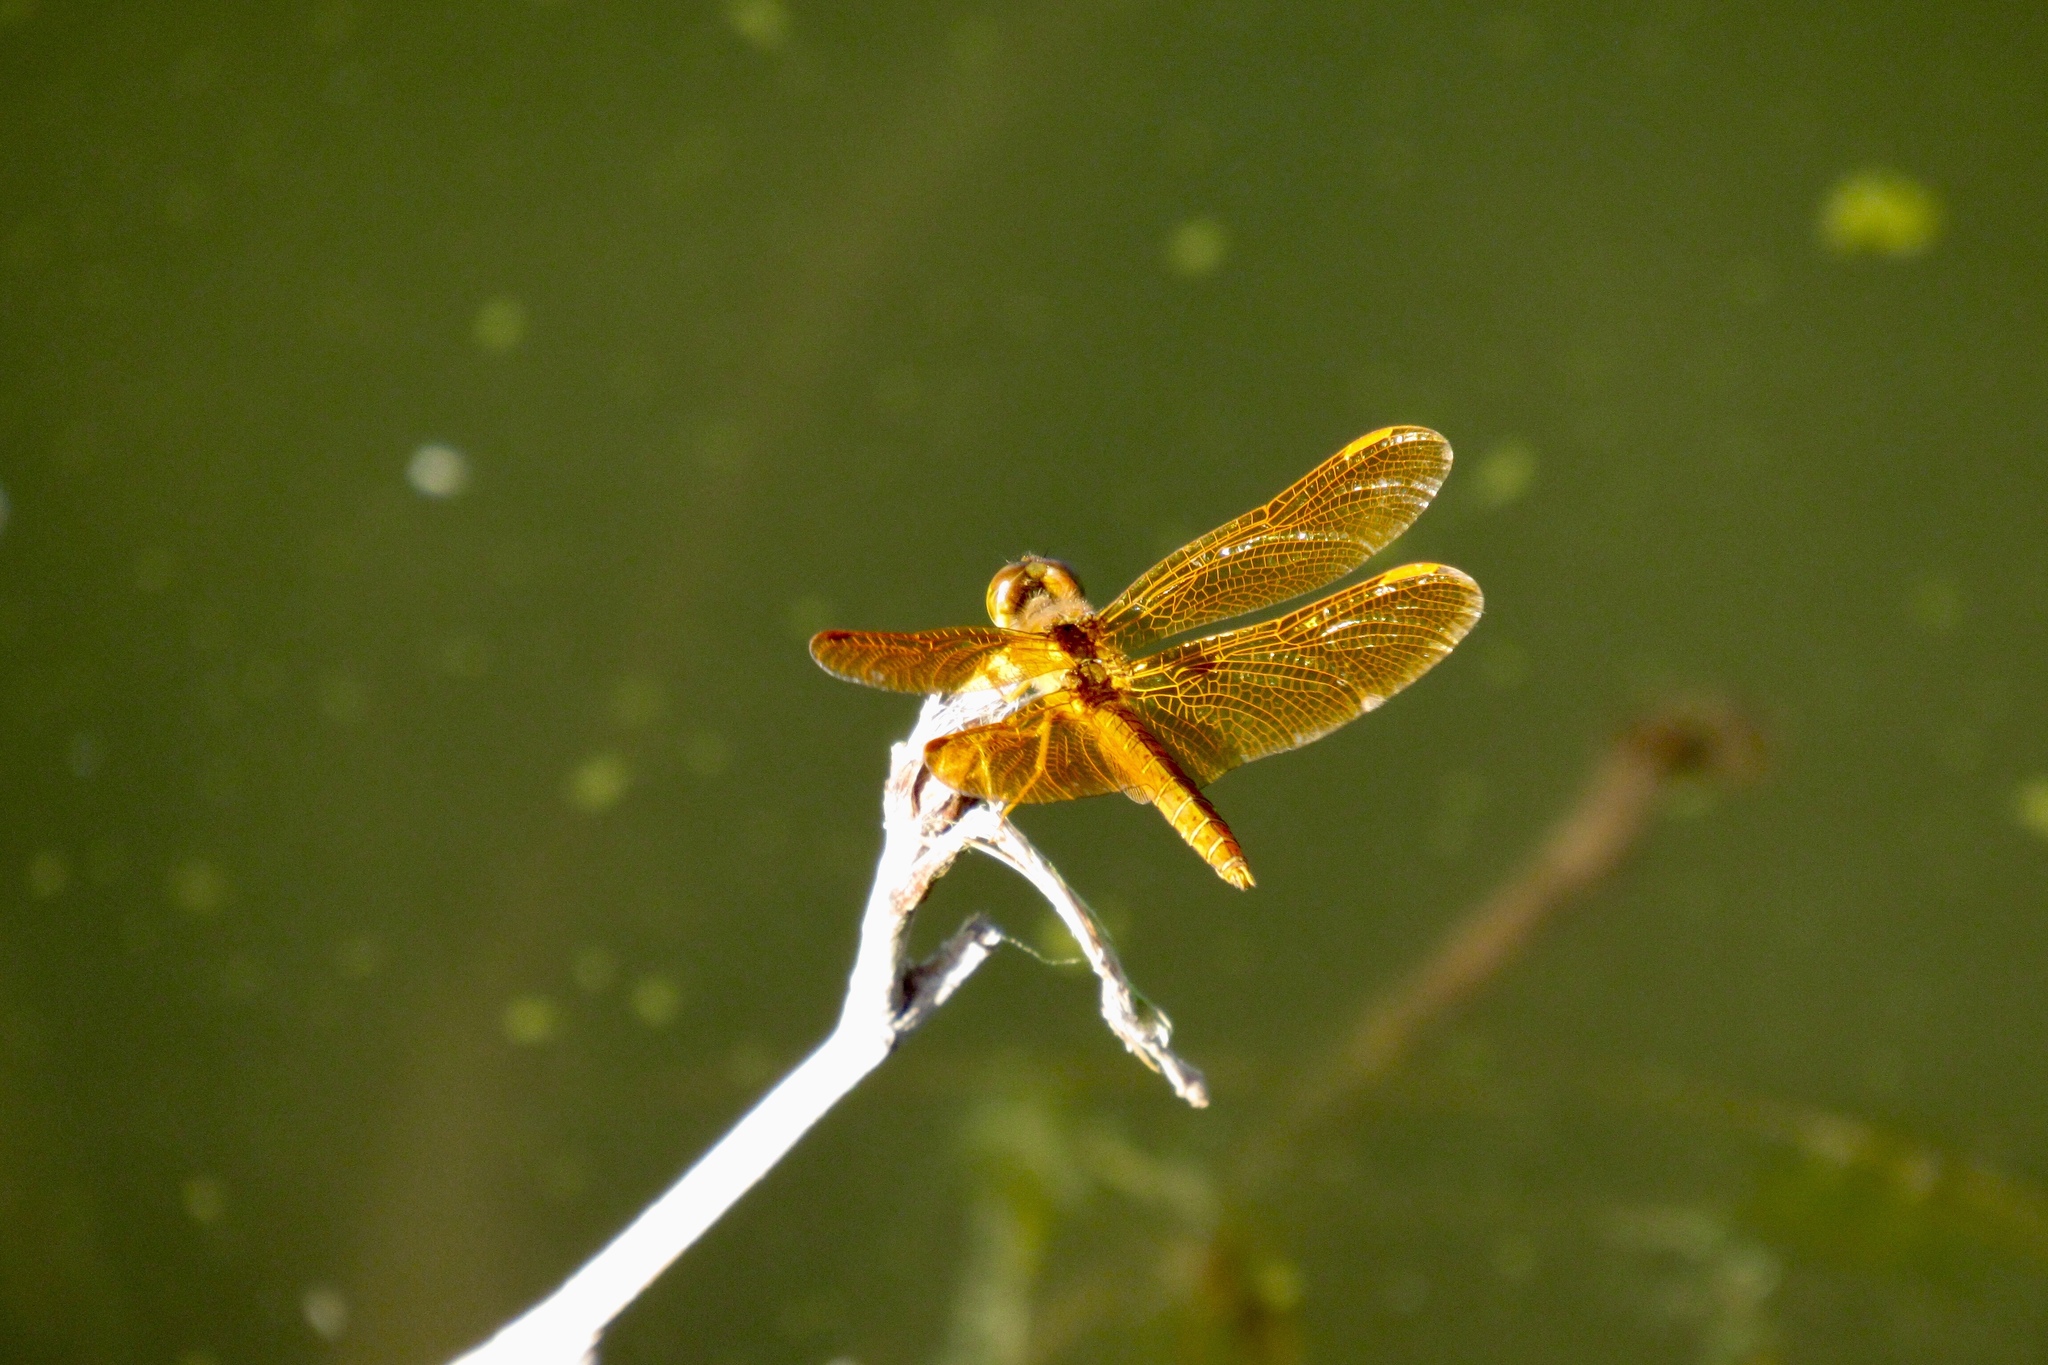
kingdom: Animalia
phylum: Arthropoda
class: Insecta
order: Odonata
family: Libellulidae
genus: Perithemis
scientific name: Perithemis intensa
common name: Mexican amberwing
